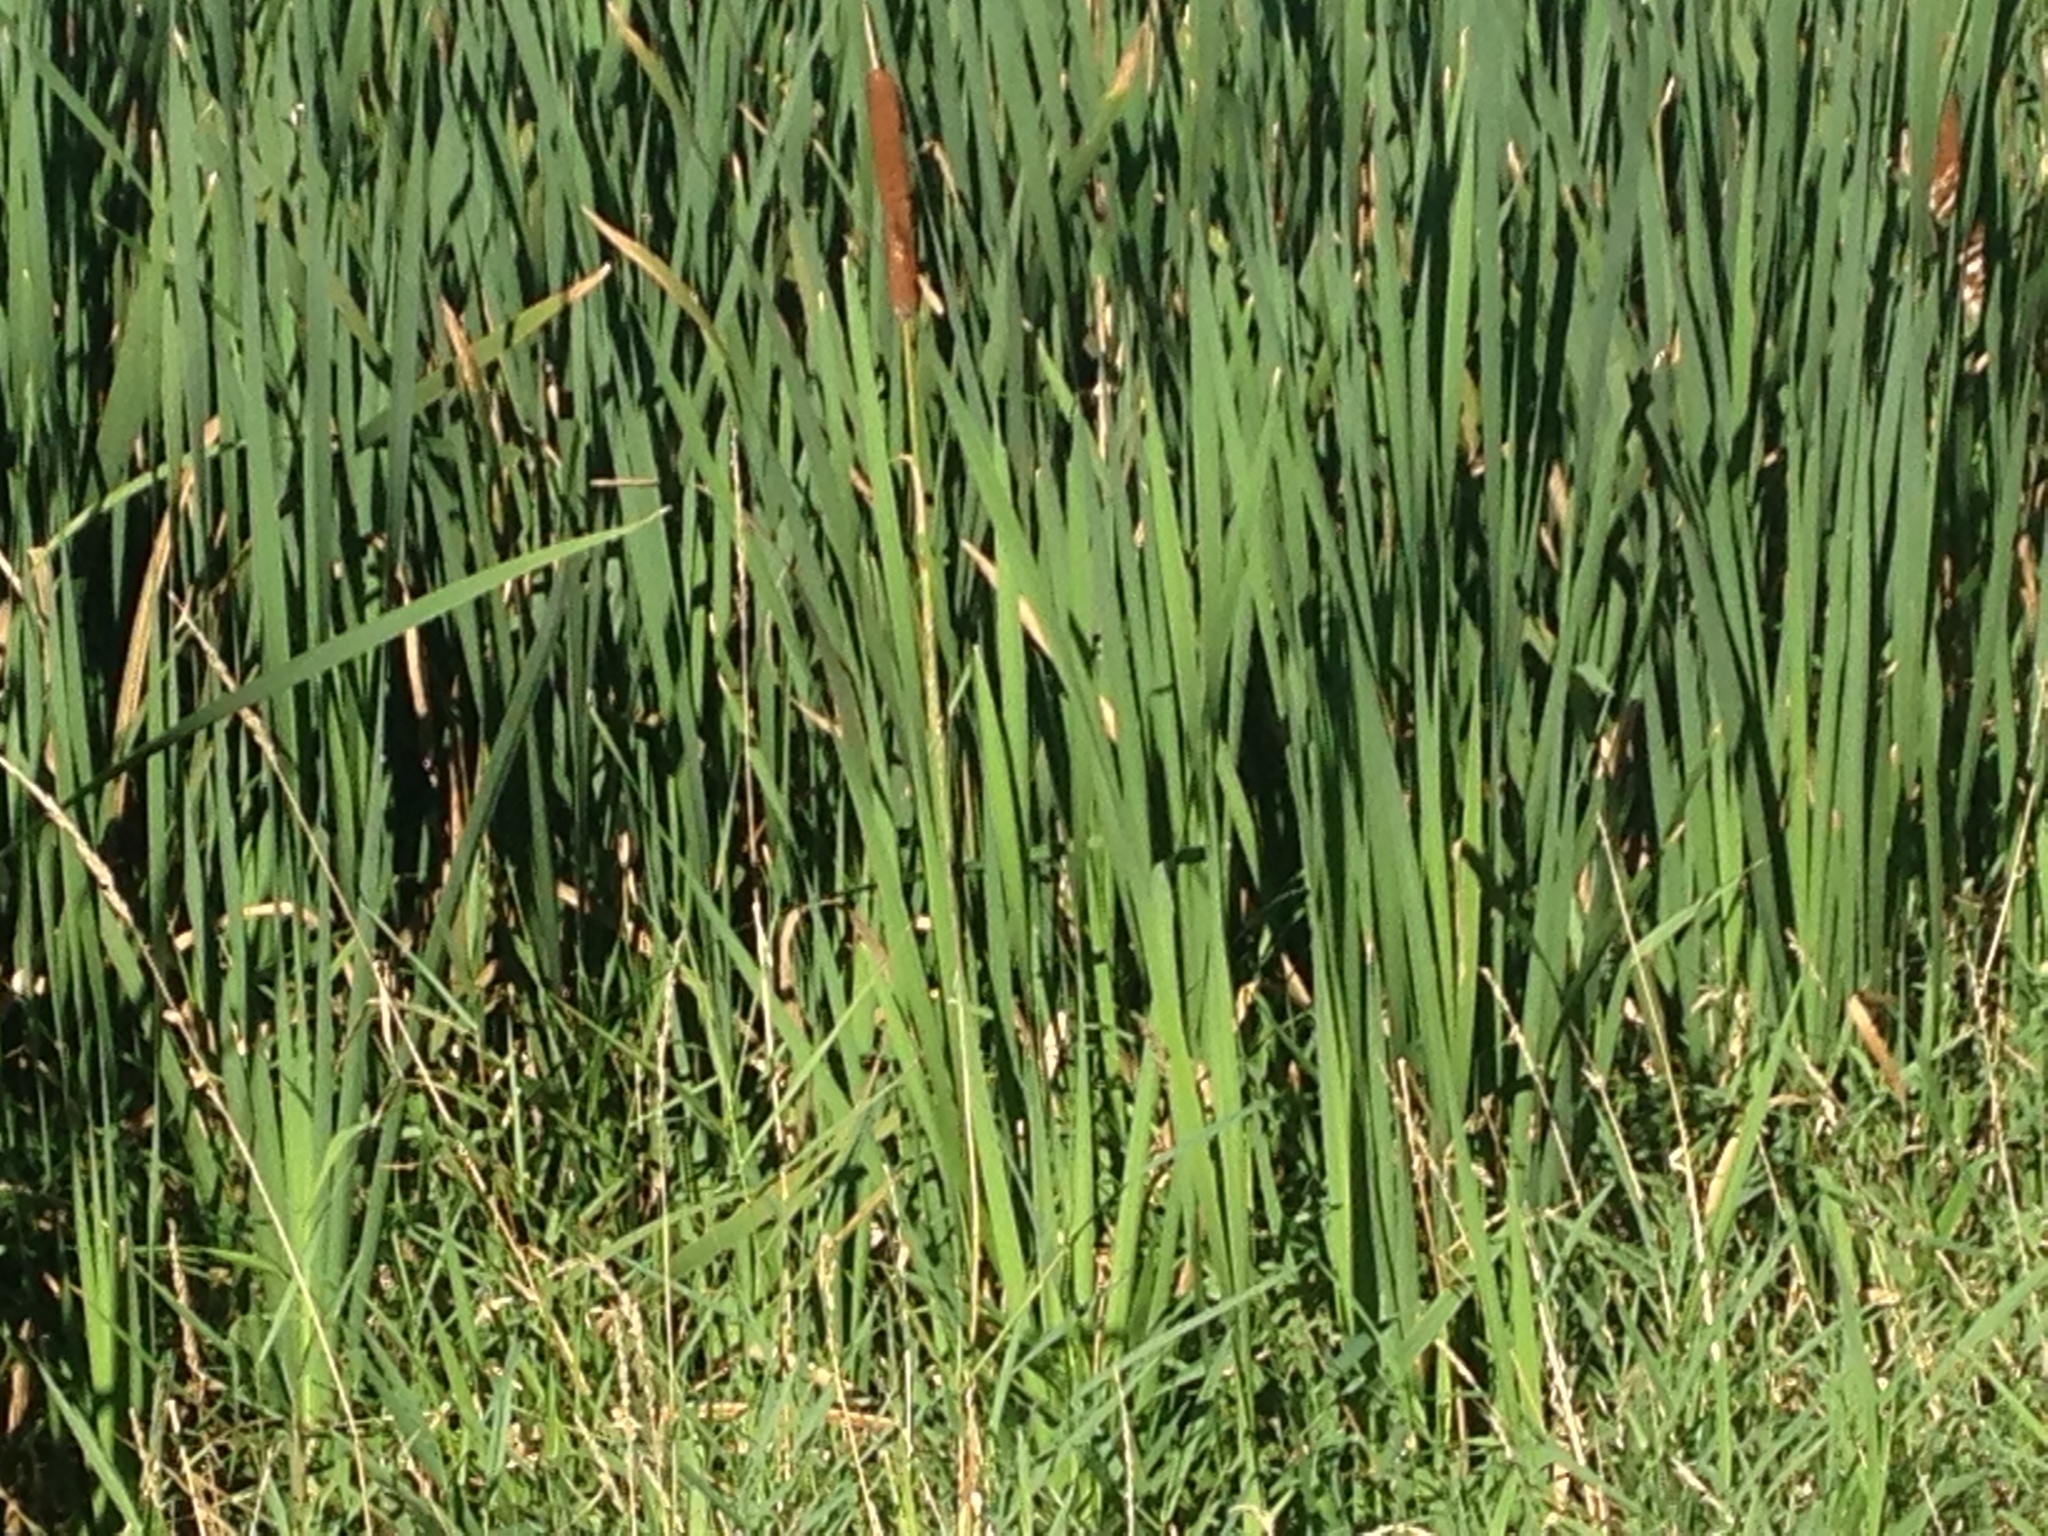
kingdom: Plantae
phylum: Tracheophyta
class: Liliopsida
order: Poales
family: Typhaceae
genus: Typha
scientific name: Typha latifolia
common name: Broadleaf cattail
